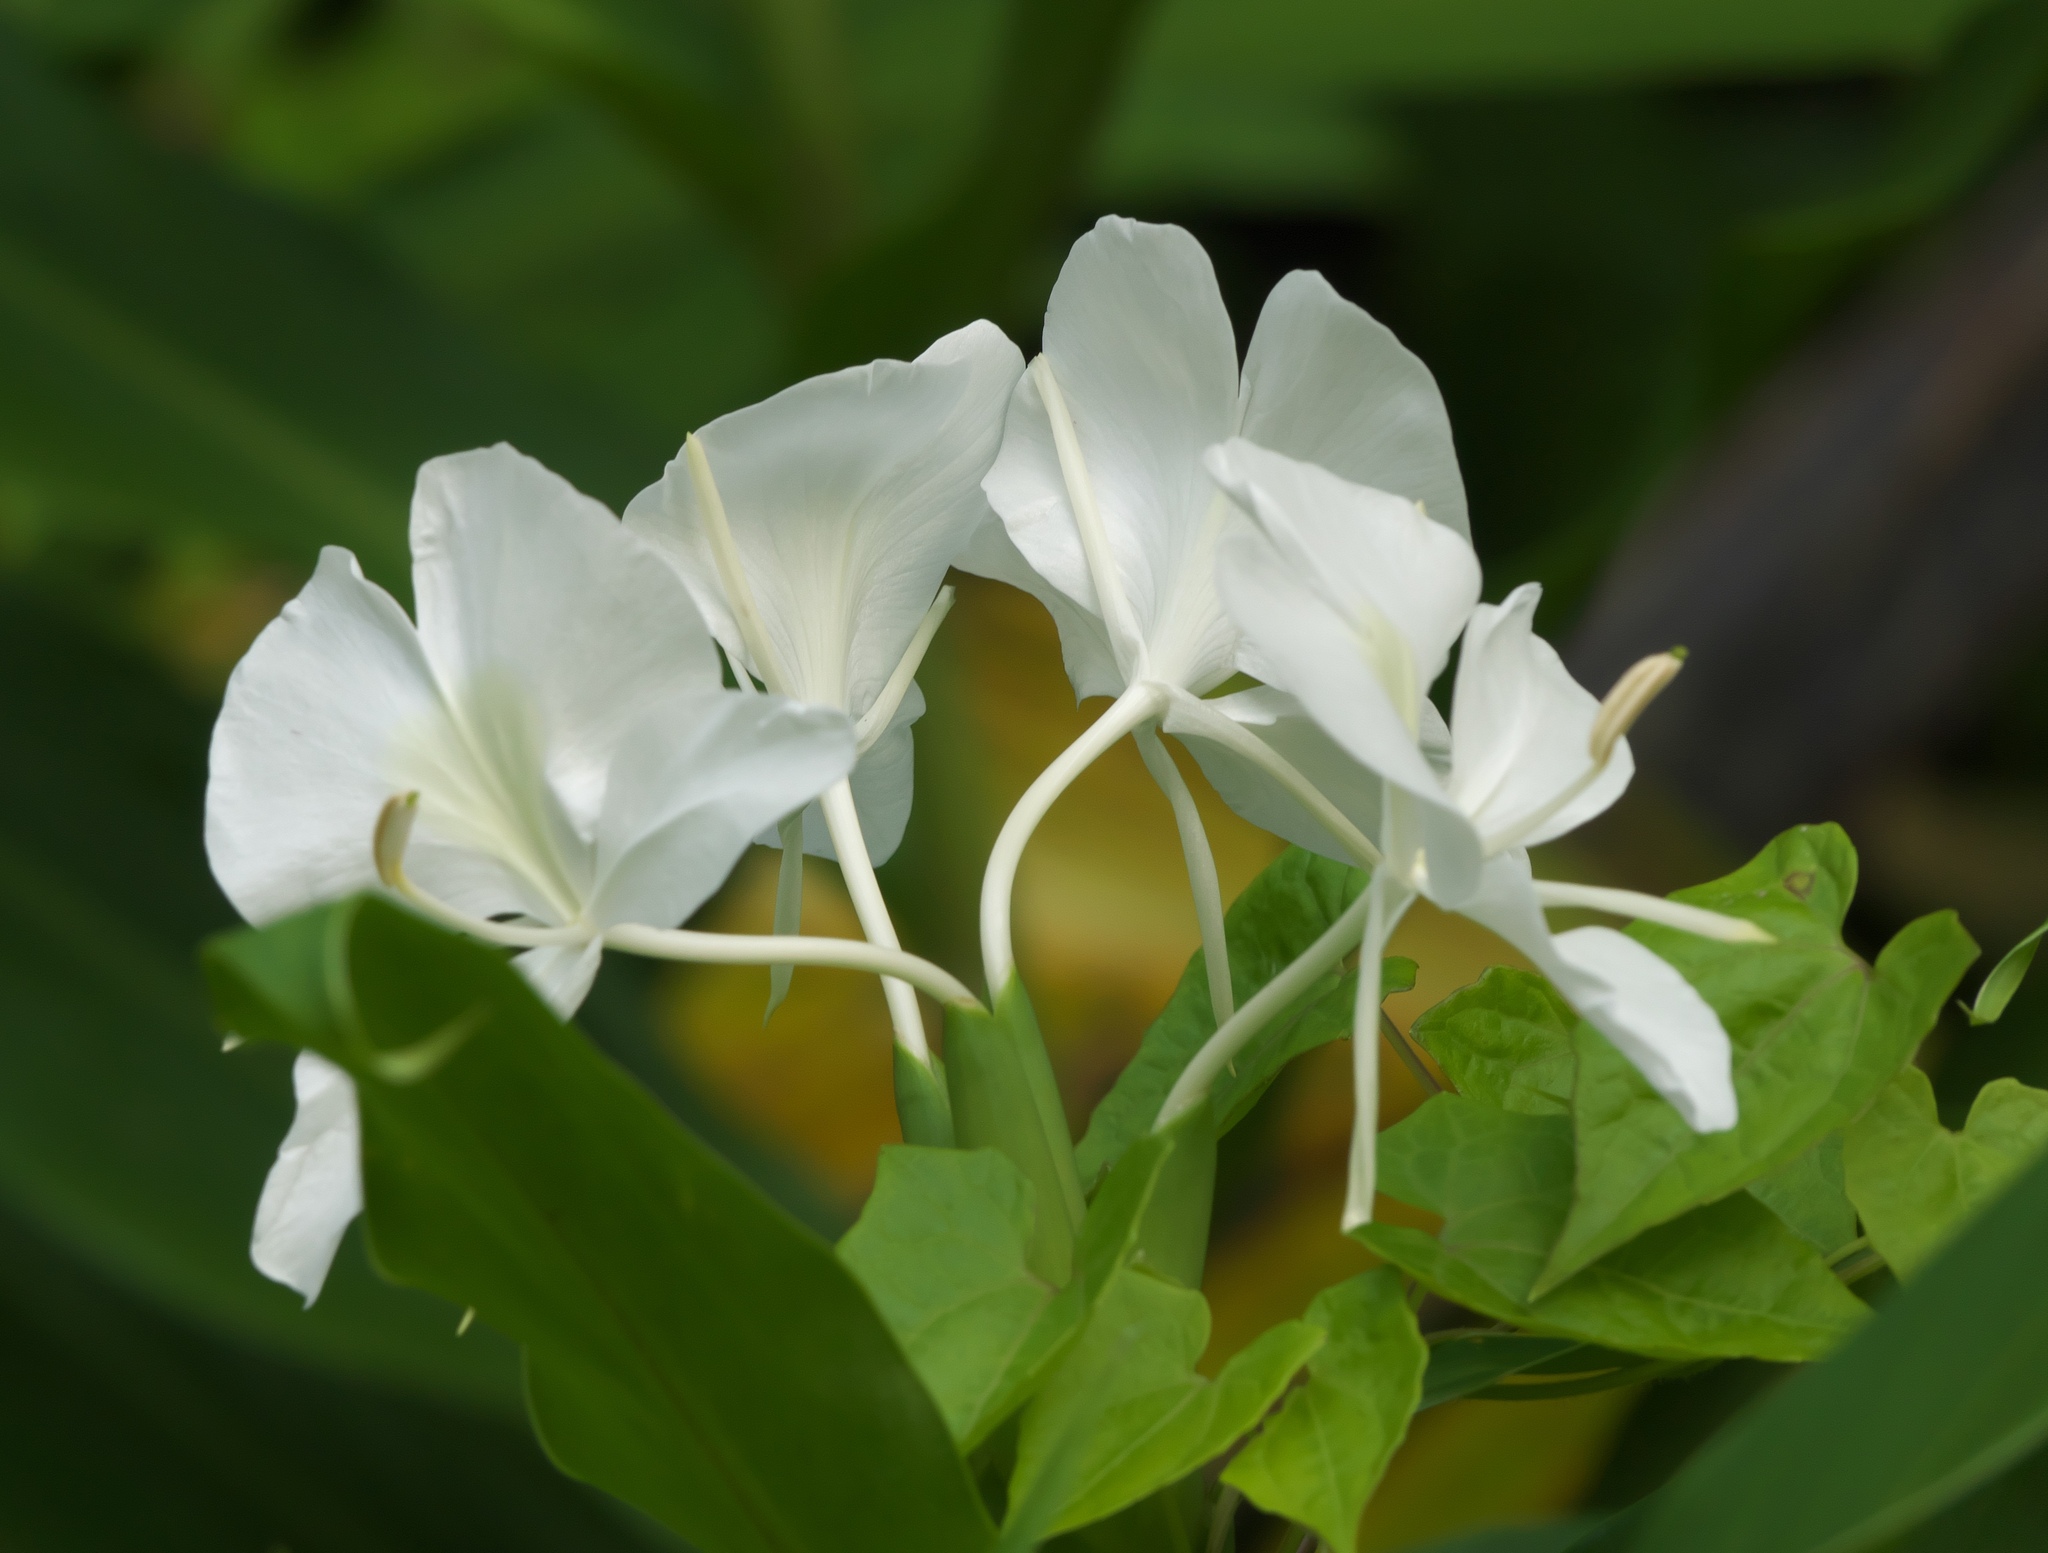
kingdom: Plantae
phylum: Tracheophyta
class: Liliopsida
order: Zingiberales
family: Zingiberaceae
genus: Hedychium
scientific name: Hedychium coronarium
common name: White garland-lily
